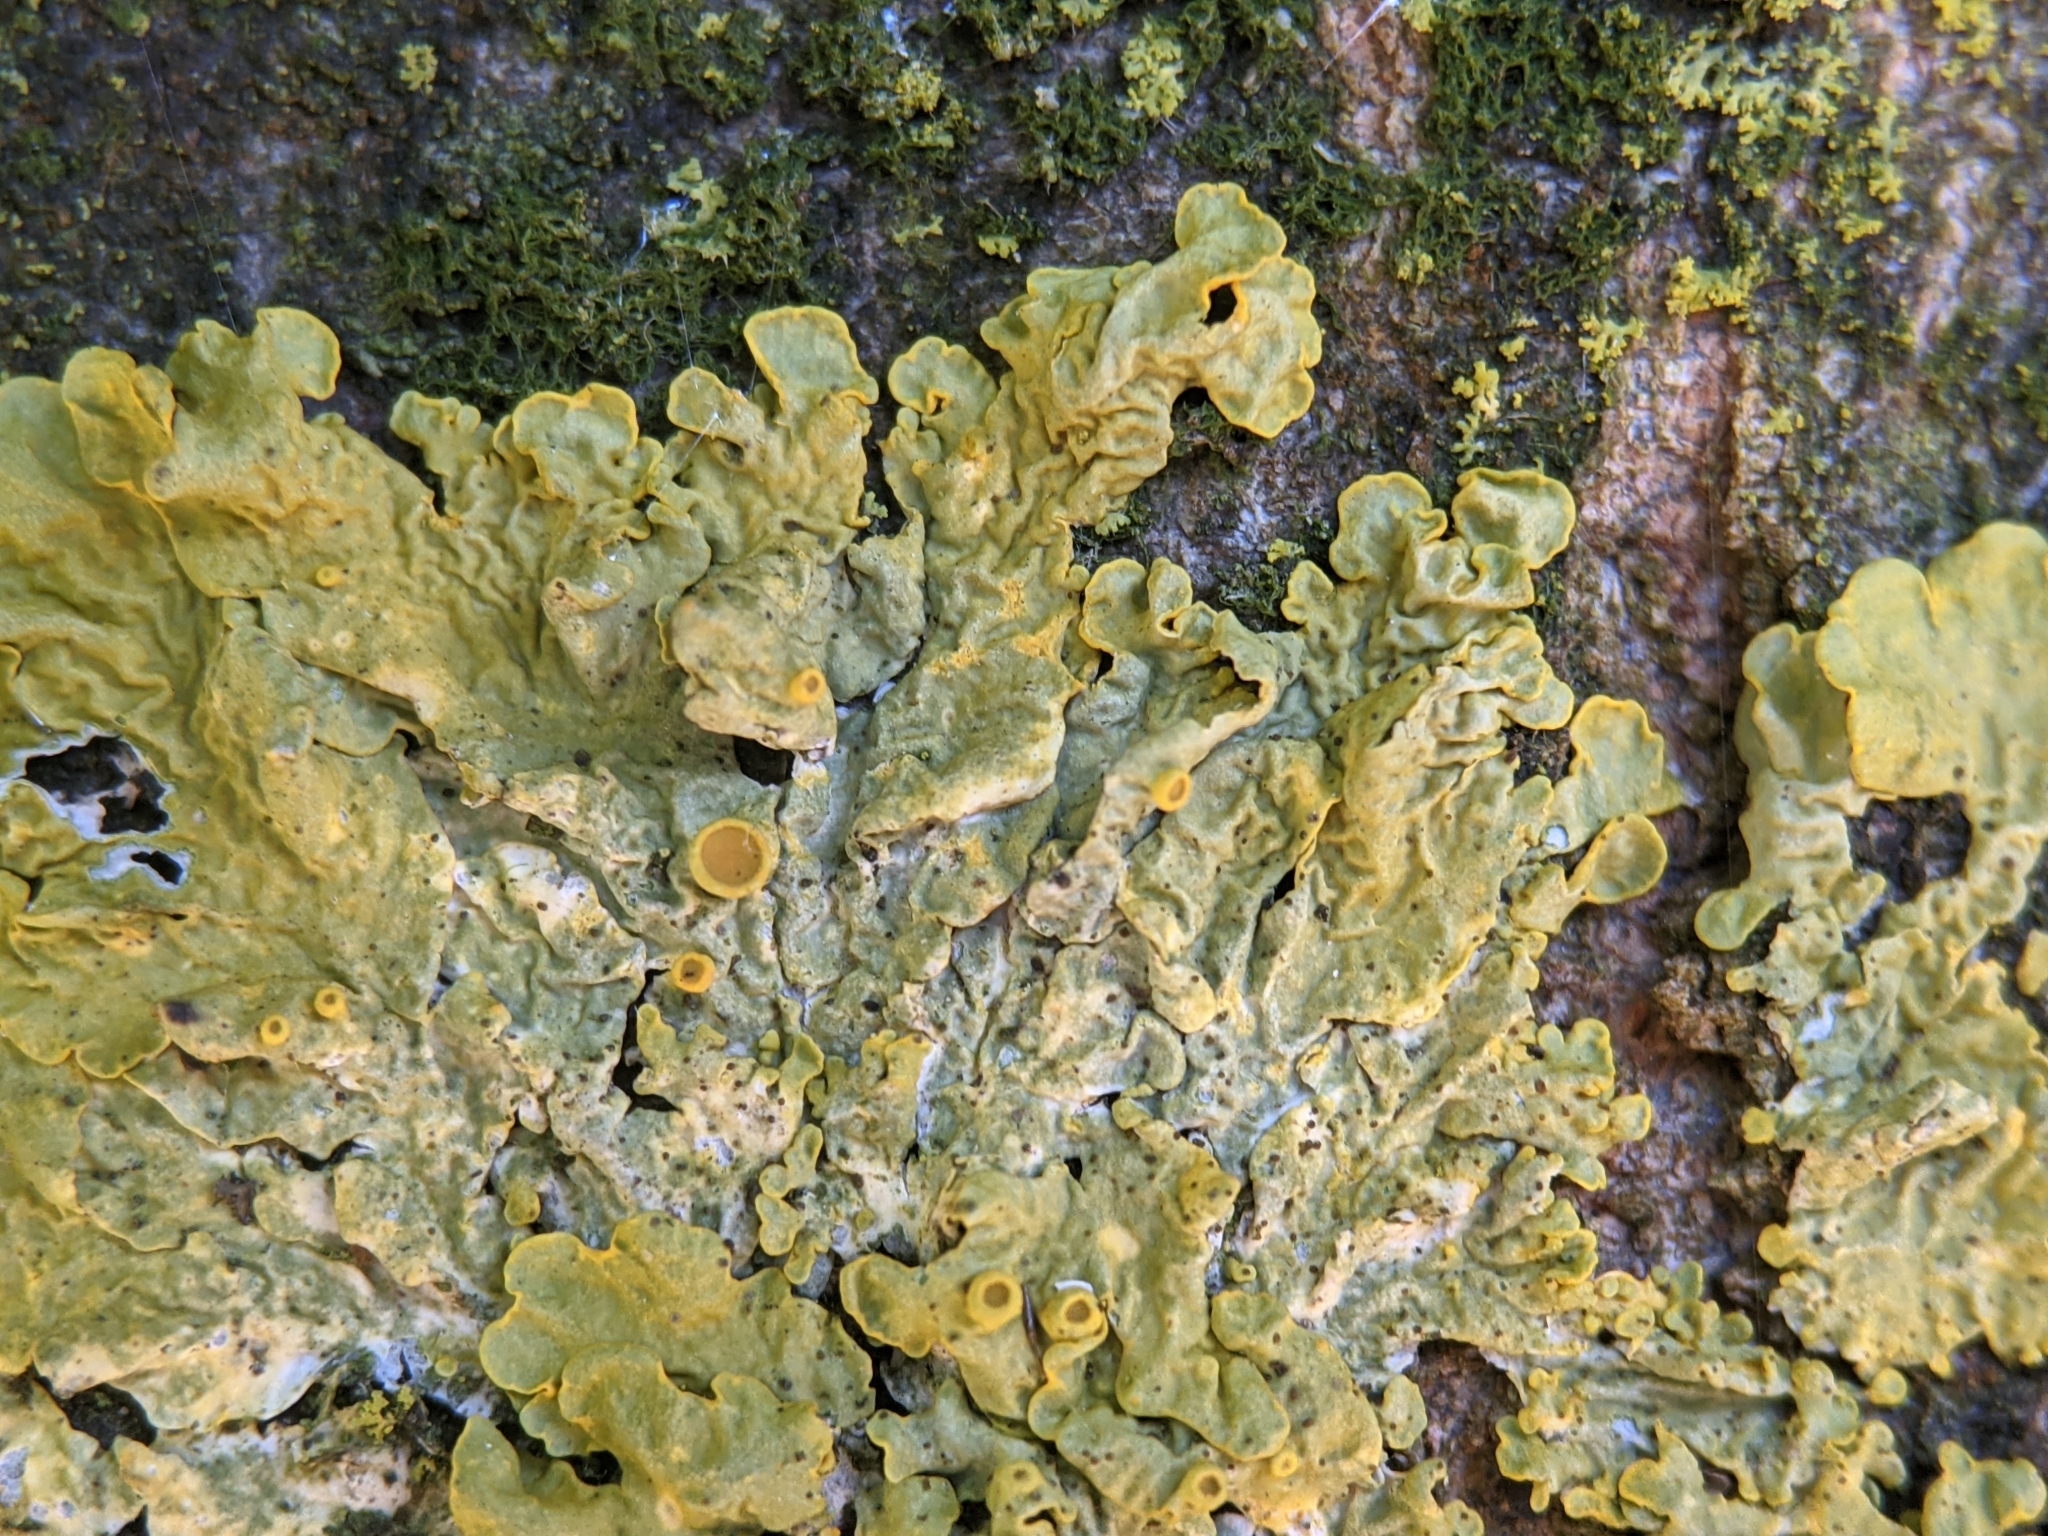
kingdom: Fungi
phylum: Ascomycota
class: Lecanoromycetes
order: Teloschistales
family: Teloschistaceae
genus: Xanthoria
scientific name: Xanthoria parietina
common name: Common orange lichen
